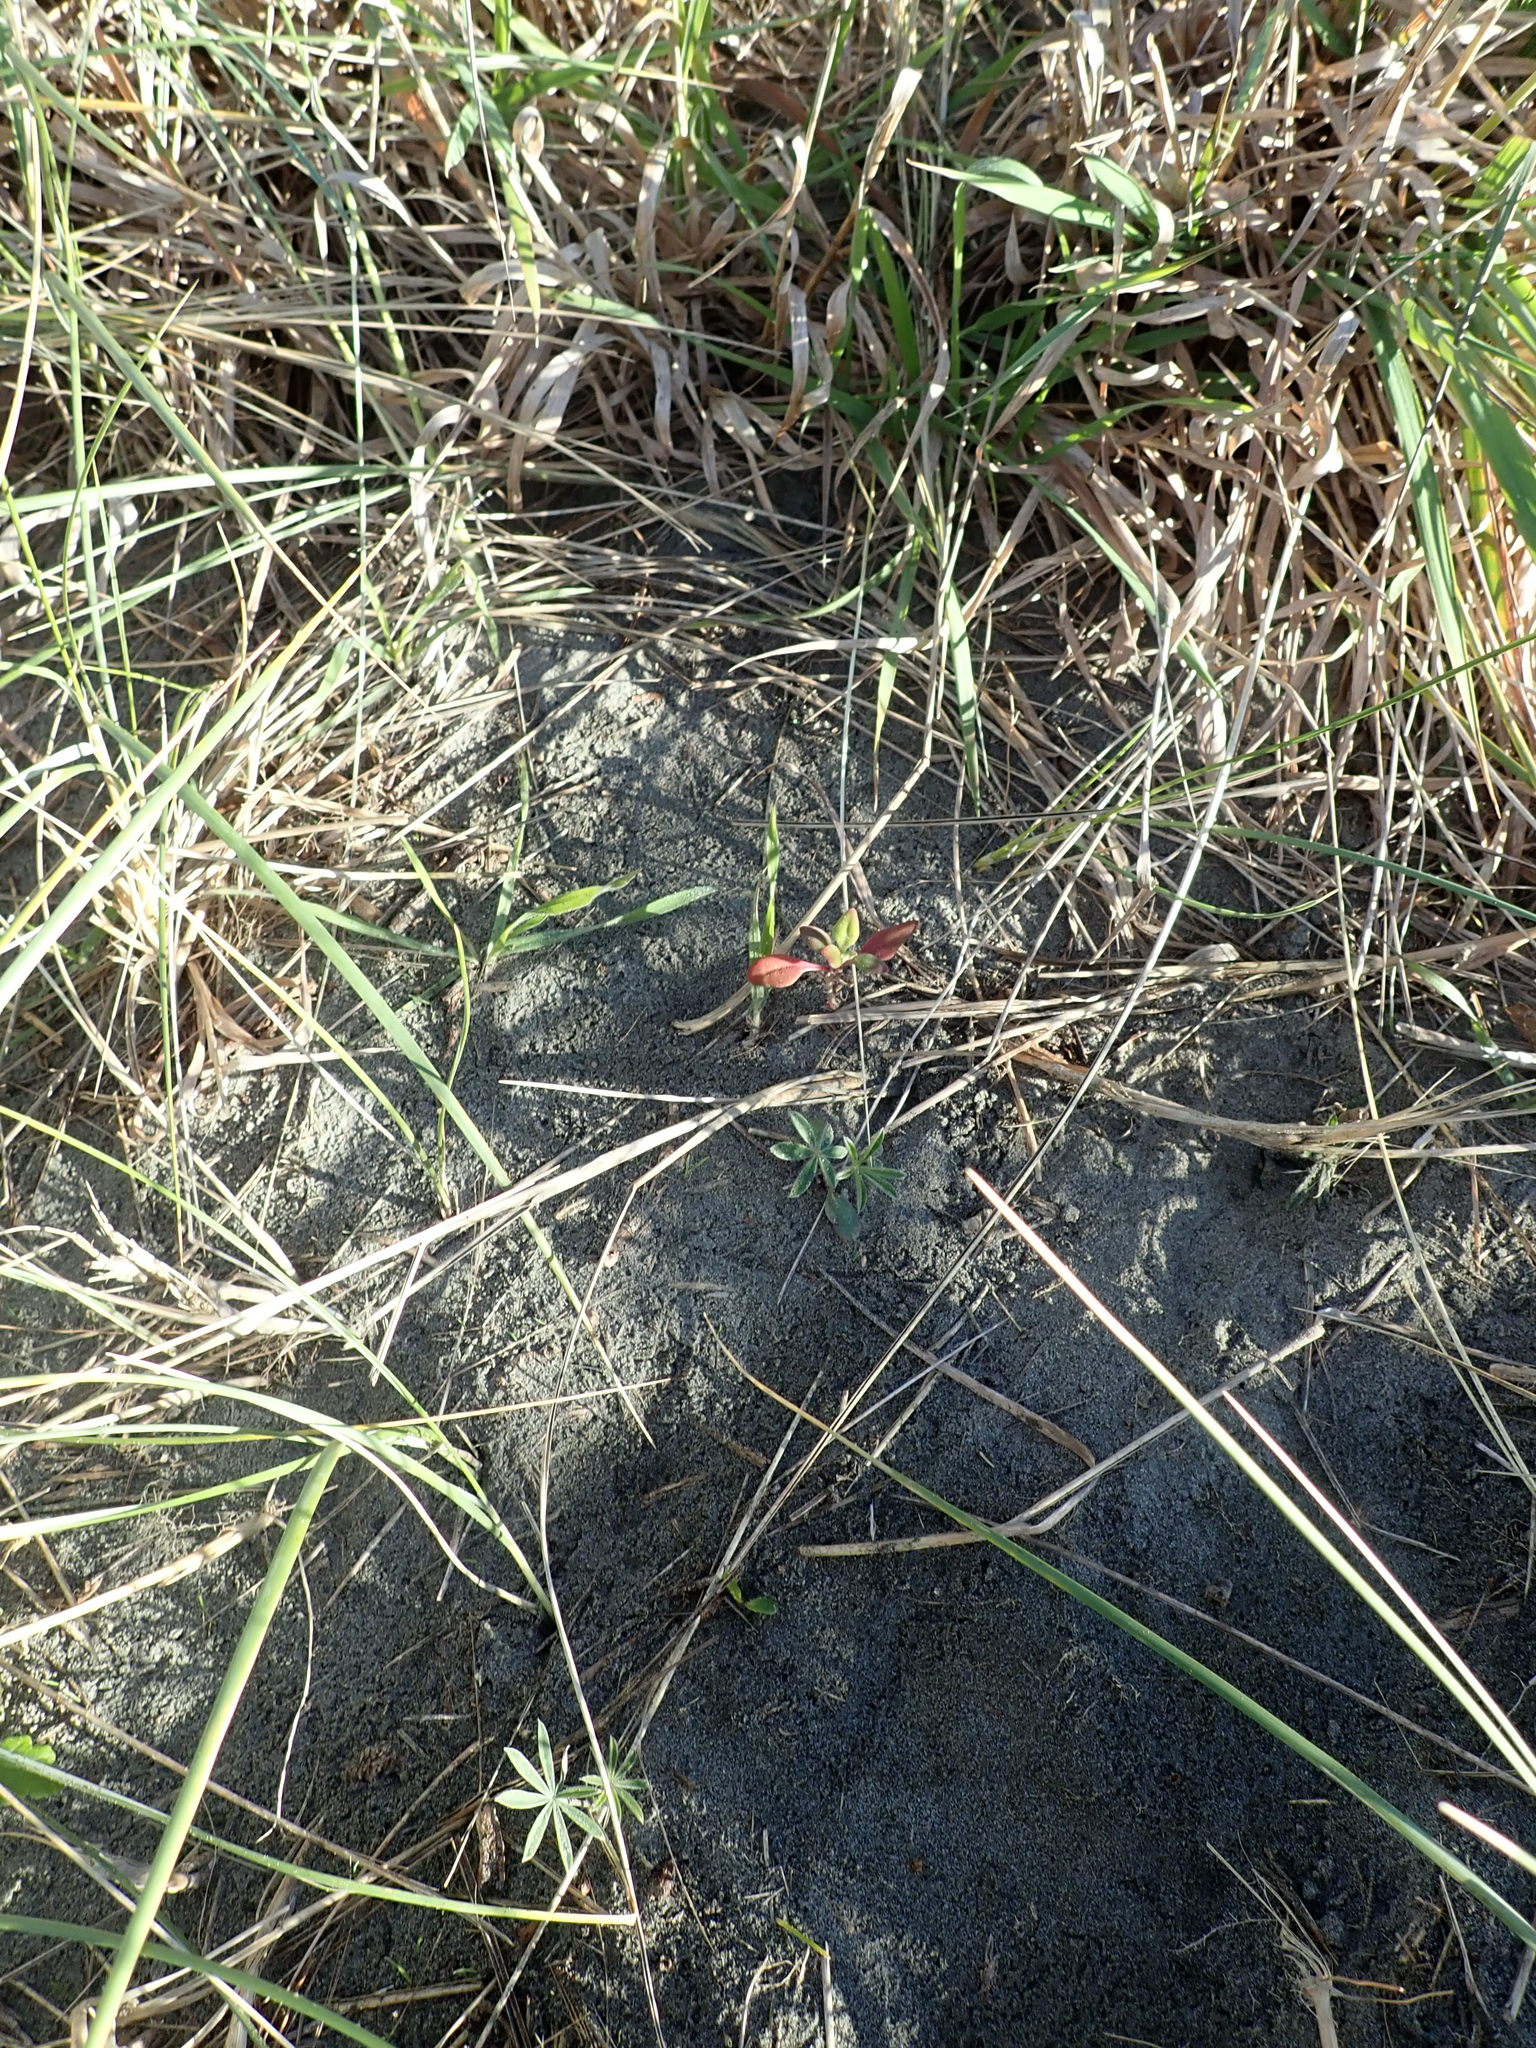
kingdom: Plantae
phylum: Tracheophyta
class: Magnoliopsida
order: Caryophyllales
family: Aizoaceae
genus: Tetragonia
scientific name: Tetragonia implexicoma
